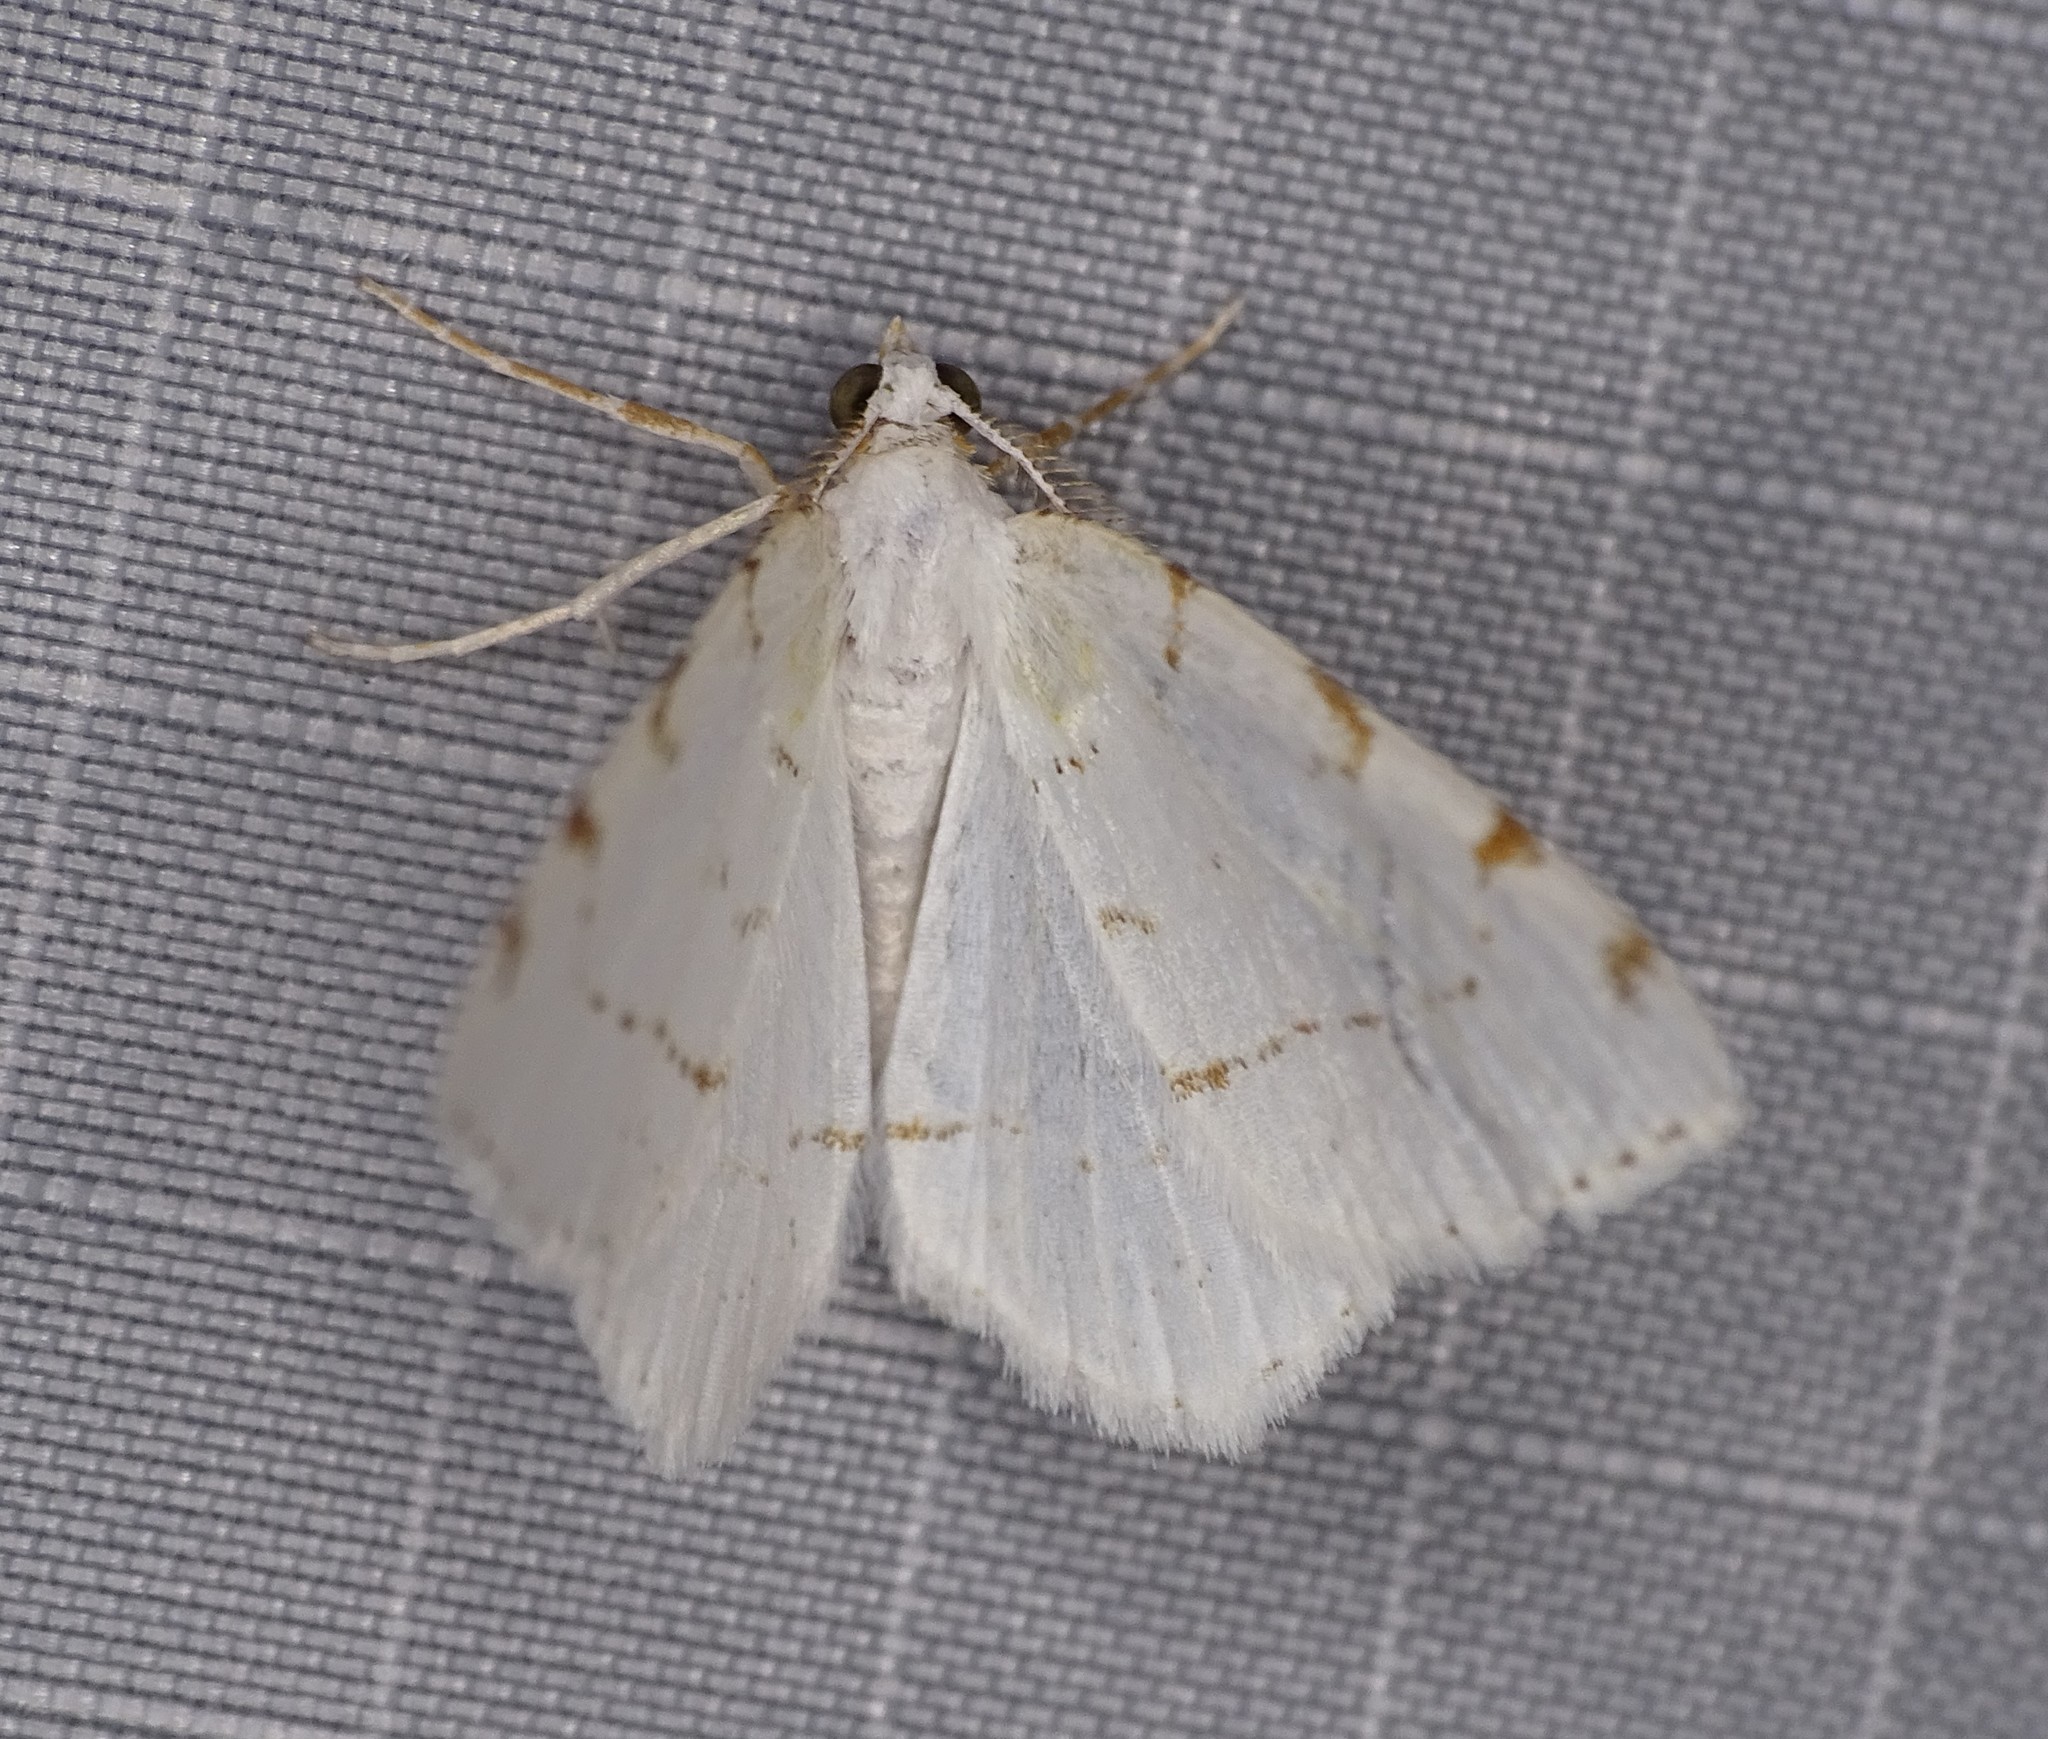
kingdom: Animalia
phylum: Arthropoda
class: Insecta
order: Lepidoptera
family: Geometridae
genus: Macaria
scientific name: Macaria pustularia
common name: Lesser maple spanworm moth
